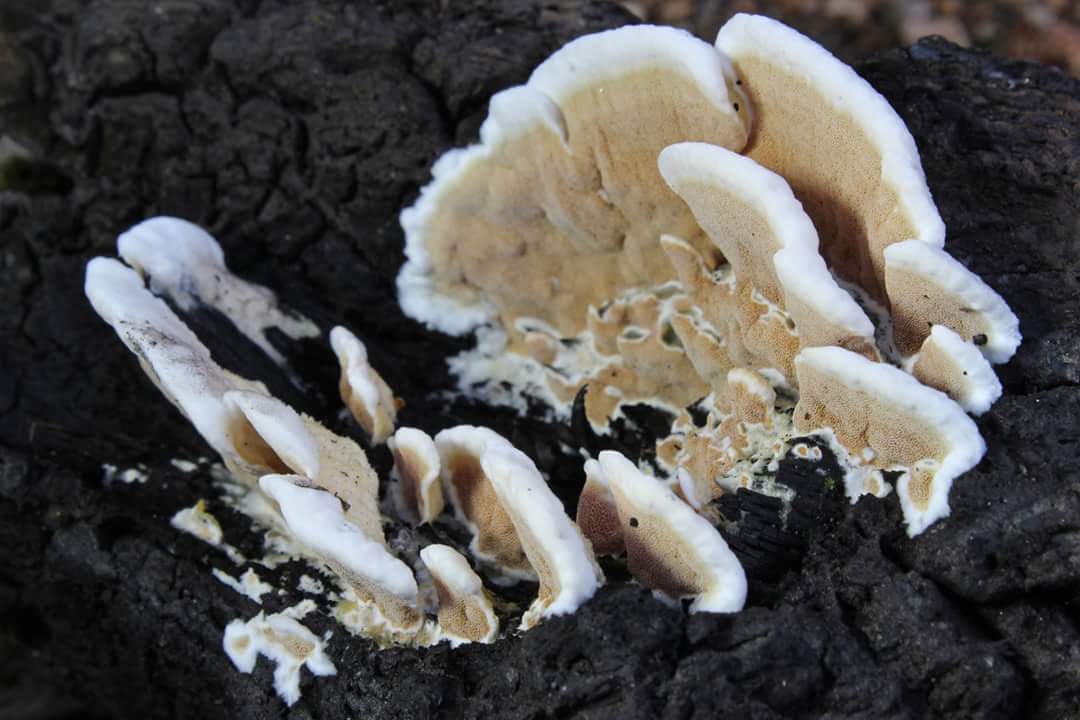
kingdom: Fungi
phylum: Basidiomycota
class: Agaricomycetes
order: Polyporales
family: Irpicaceae
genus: Vitreoporus
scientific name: Vitreoporus dichrous
